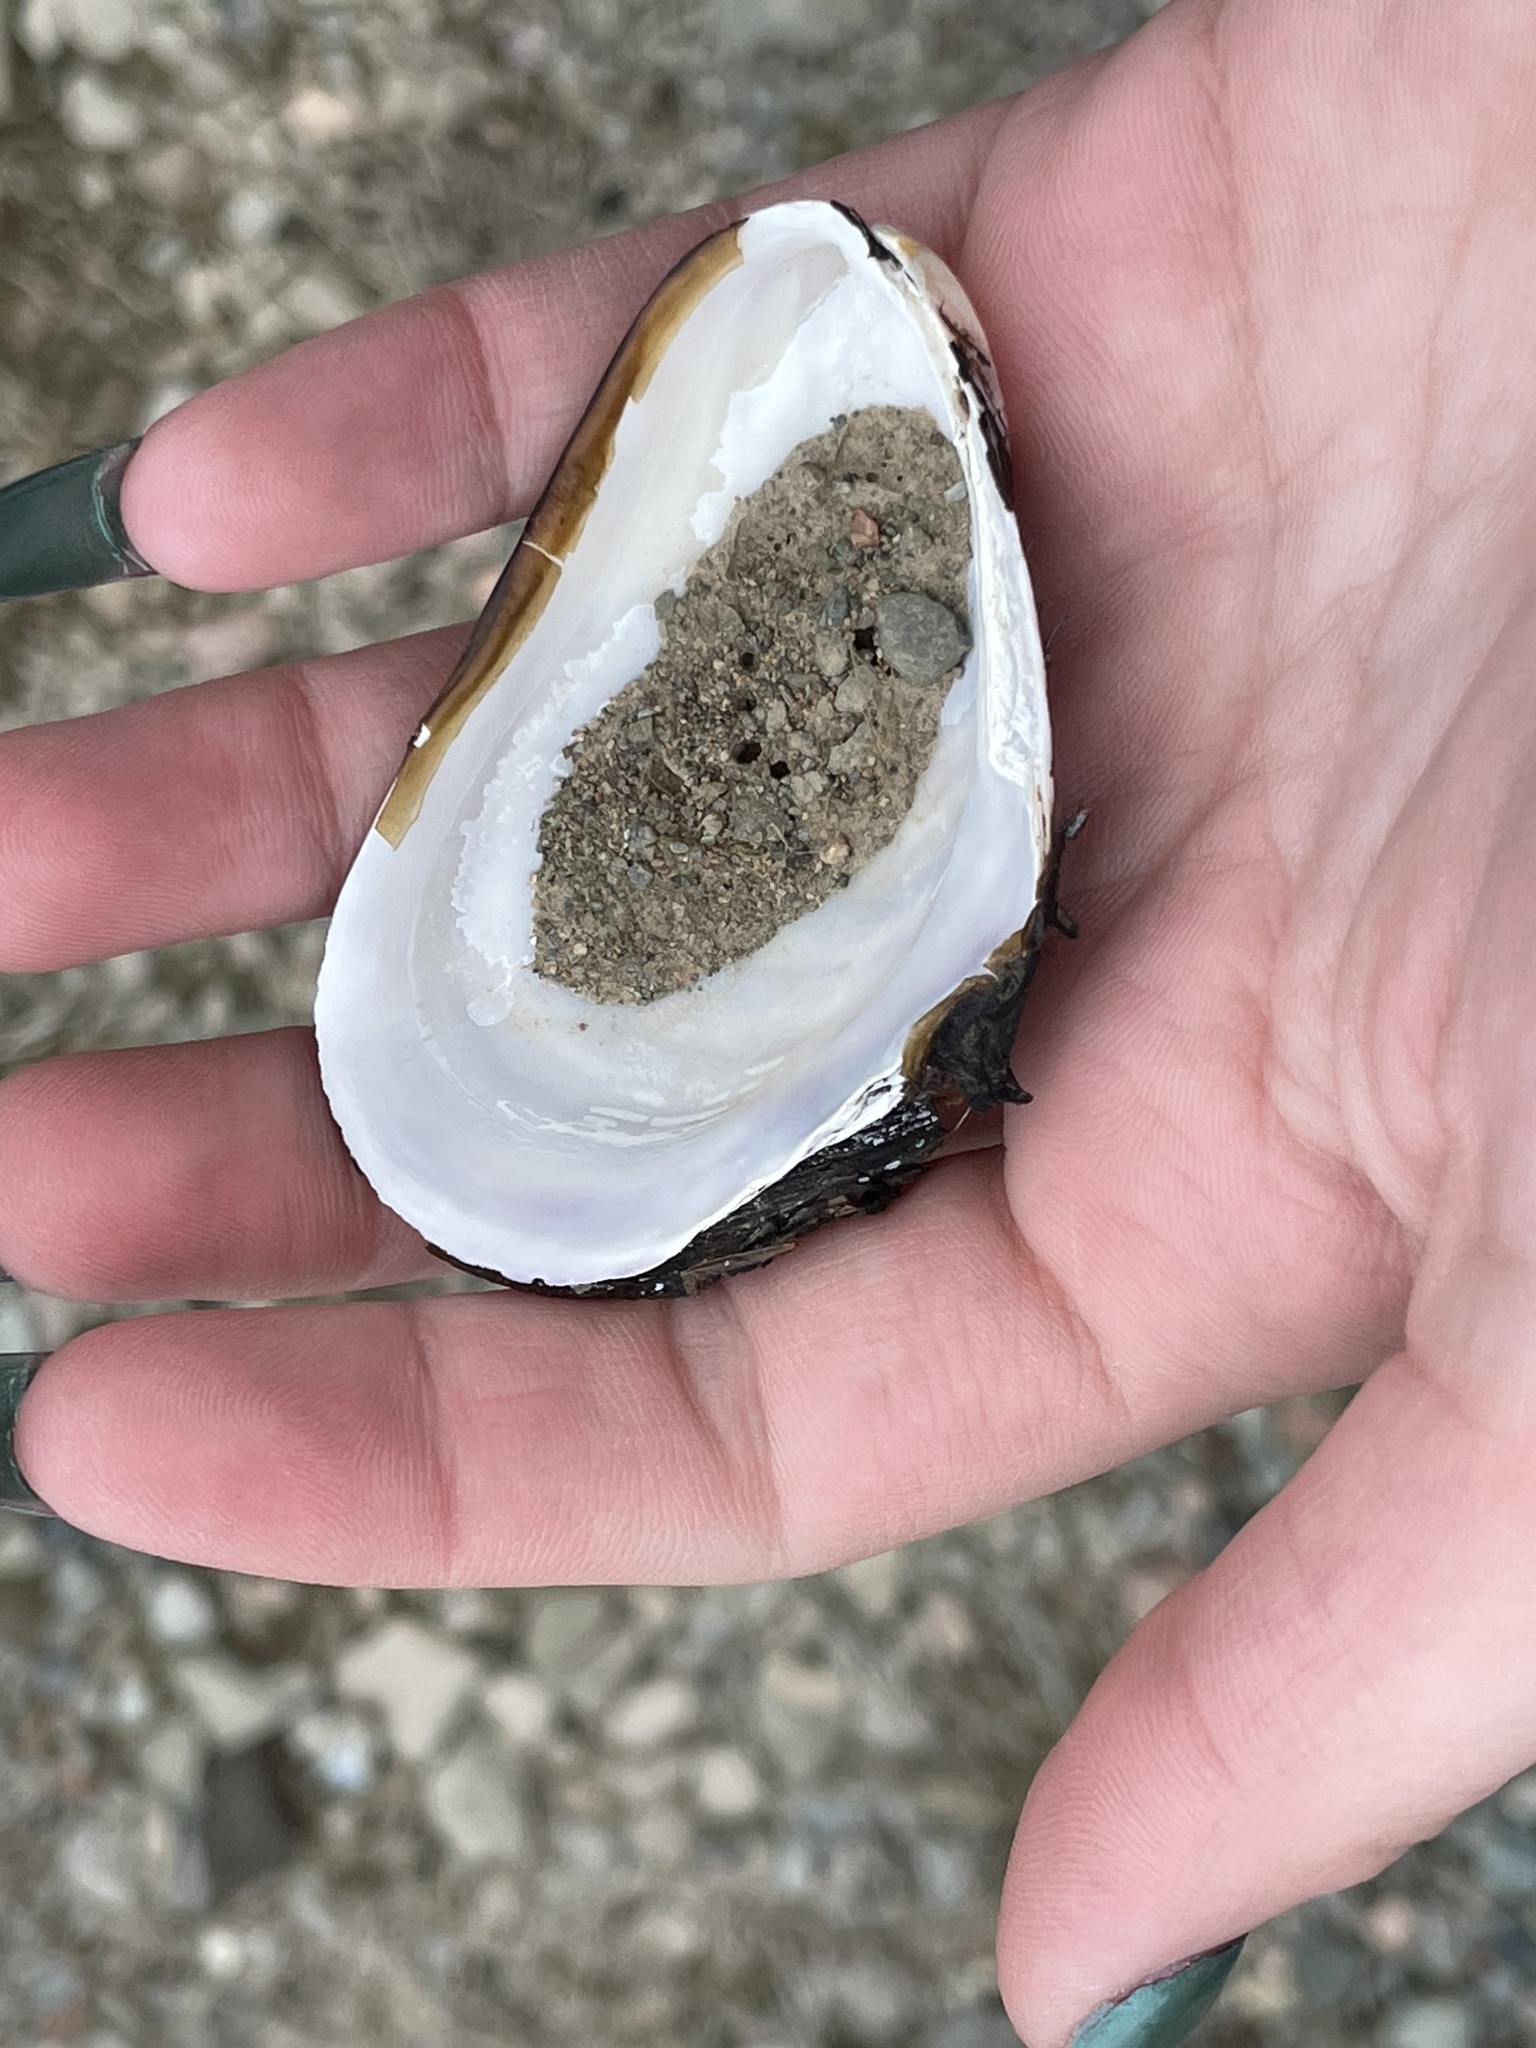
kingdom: Animalia
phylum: Mollusca
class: Bivalvia
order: Mytilida
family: Mytilidae
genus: Modiolus
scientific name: Modiolus modiolus
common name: Horse-mussel
